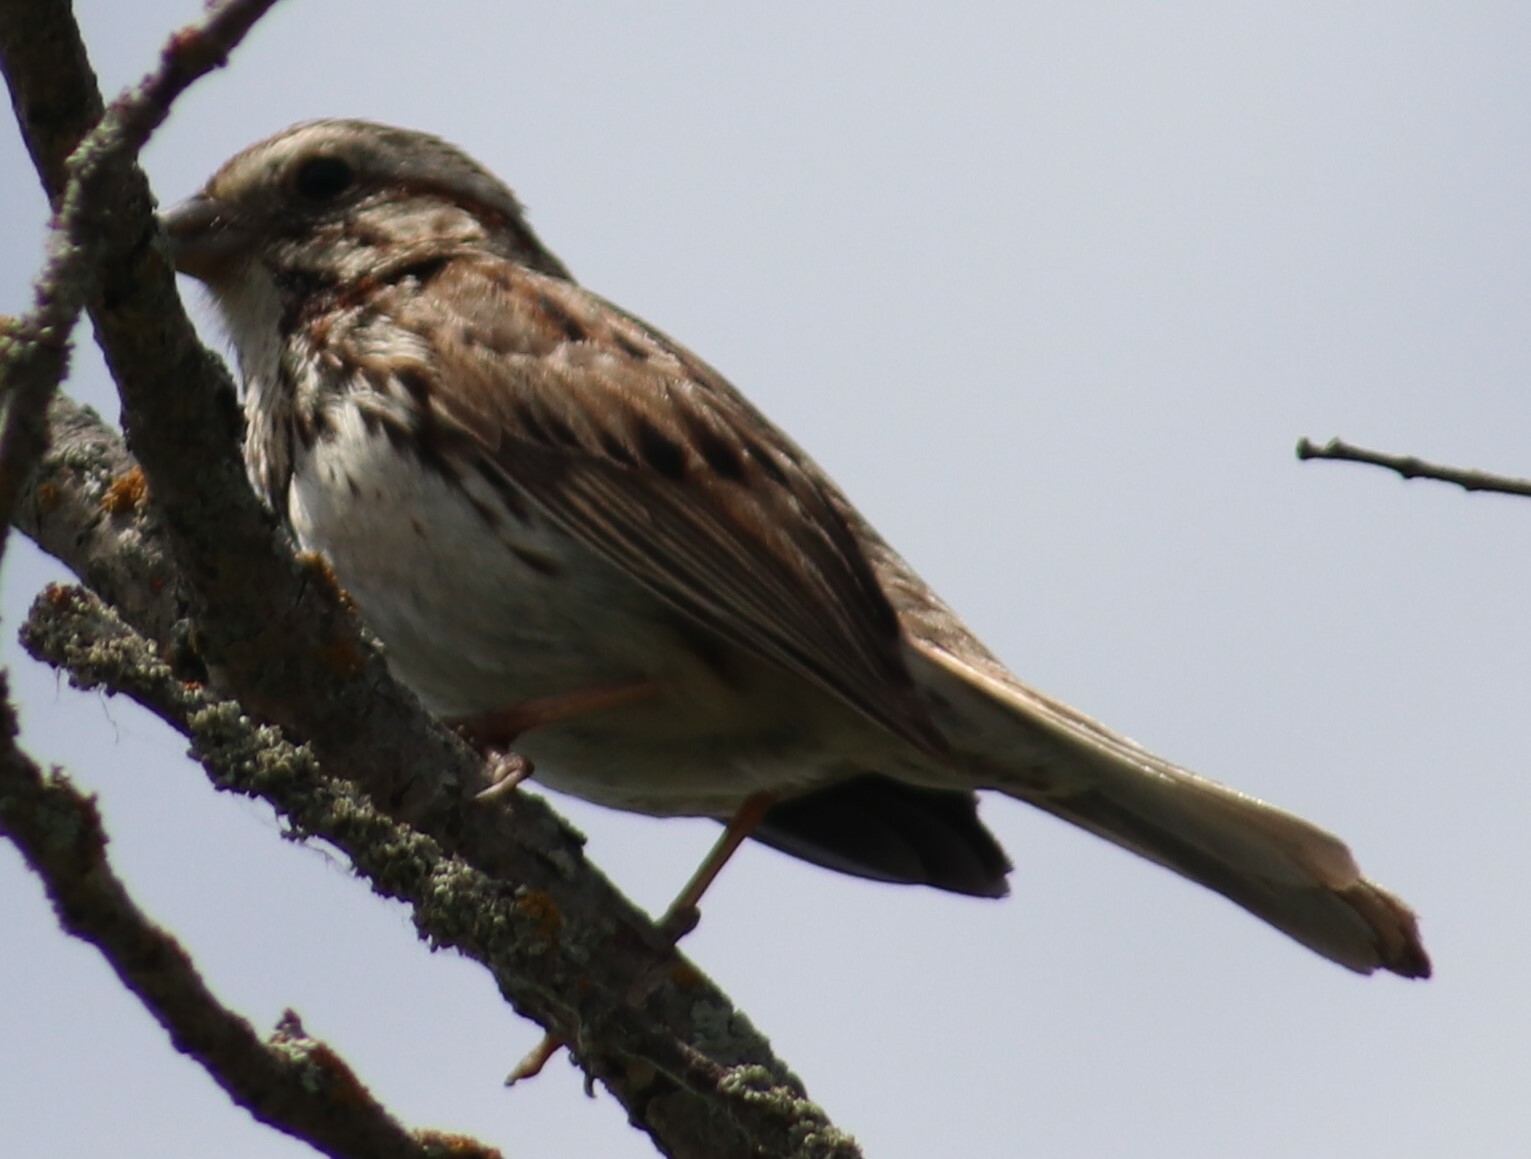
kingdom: Animalia
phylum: Chordata
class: Aves
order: Passeriformes
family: Passerellidae
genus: Melospiza
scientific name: Melospiza melodia
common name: Song sparrow
